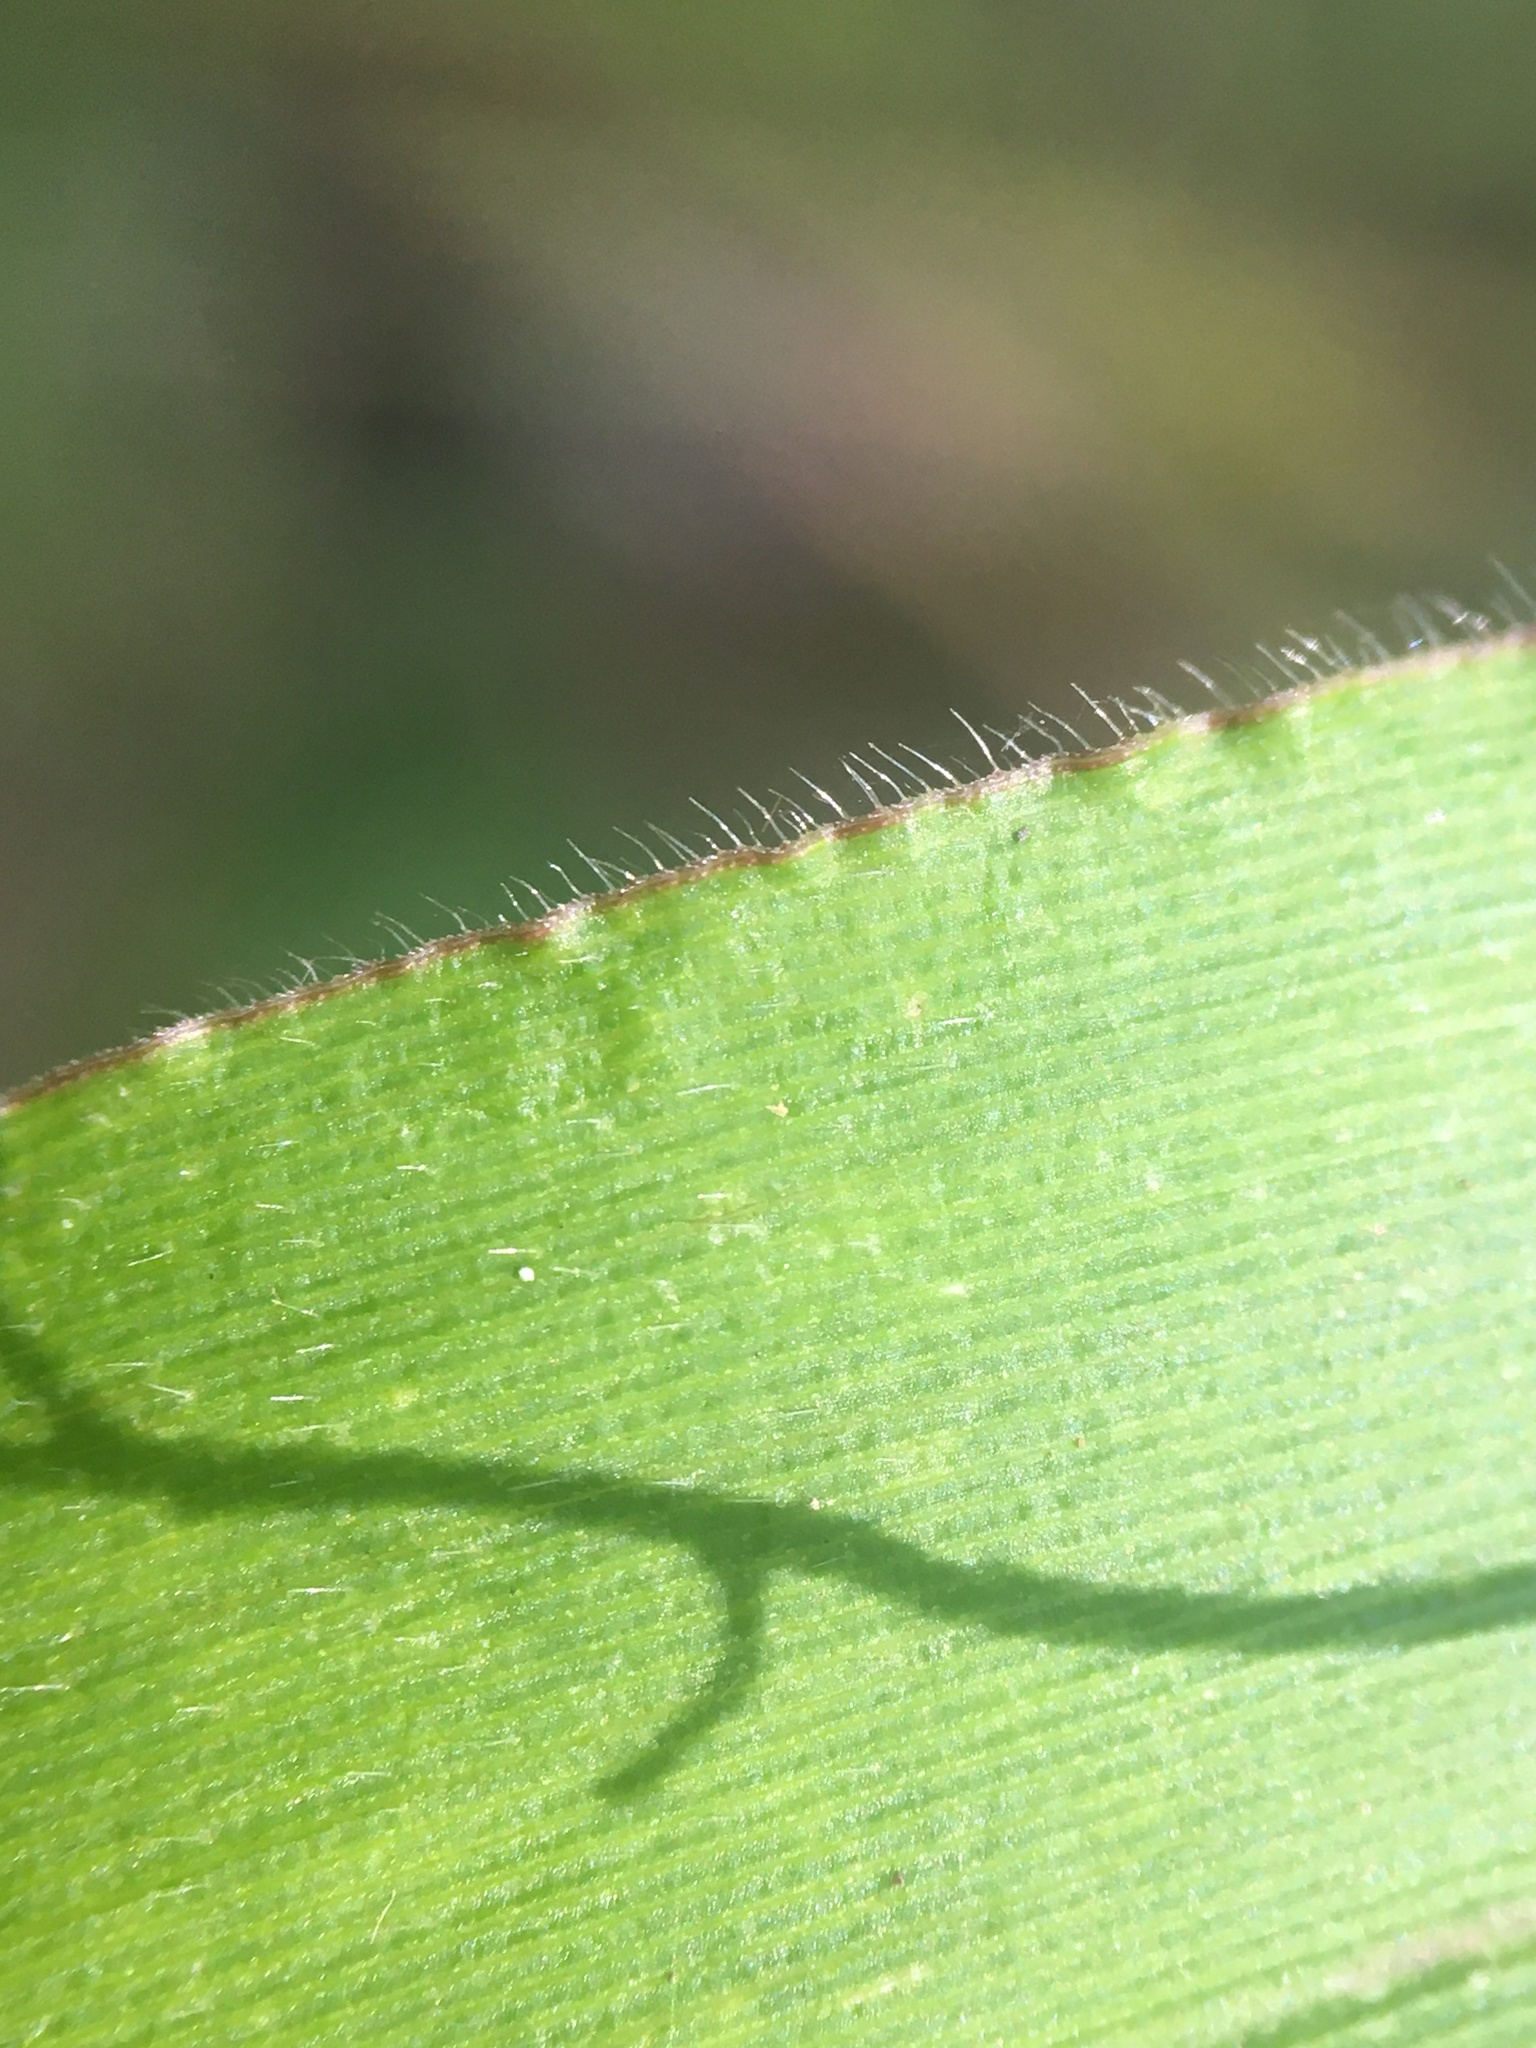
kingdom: Plantae
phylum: Tracheophyta
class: Liliopsida
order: Poales
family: Poaceae
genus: Dichanthelium
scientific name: Dichanthelium clandestinum
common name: Deer-tongue grass
